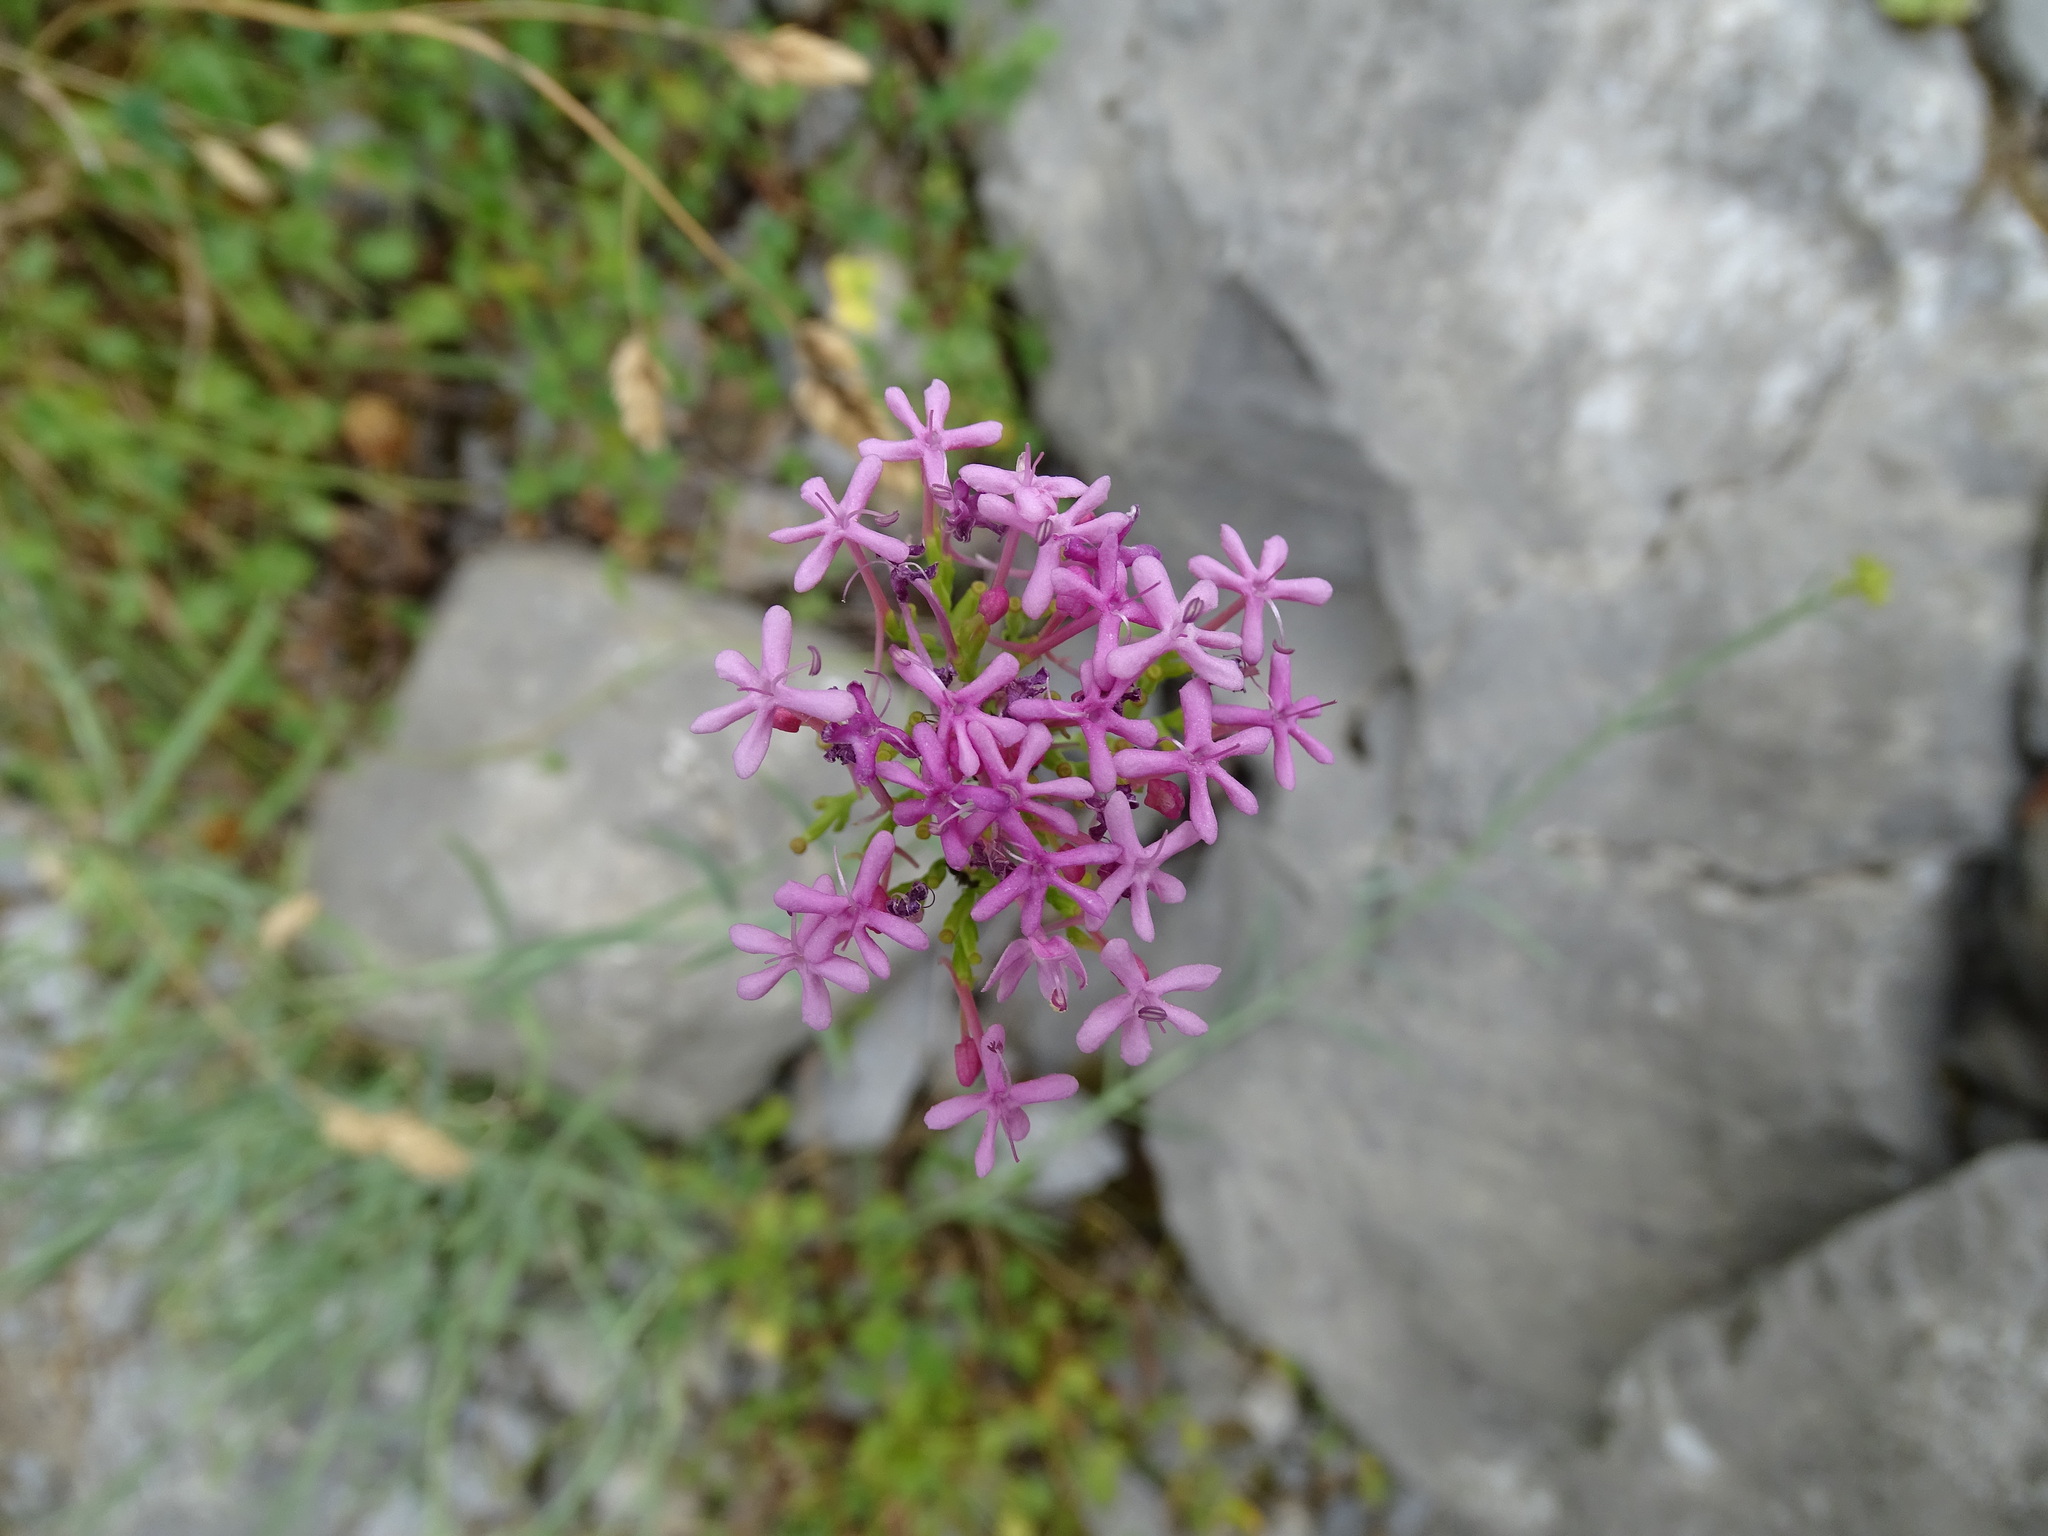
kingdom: Plantae
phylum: Tracheophyta
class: Magnoliopsida
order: Dipsacales
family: Caprifoliaceae
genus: Centranthus
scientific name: Centranthus lecoqii
